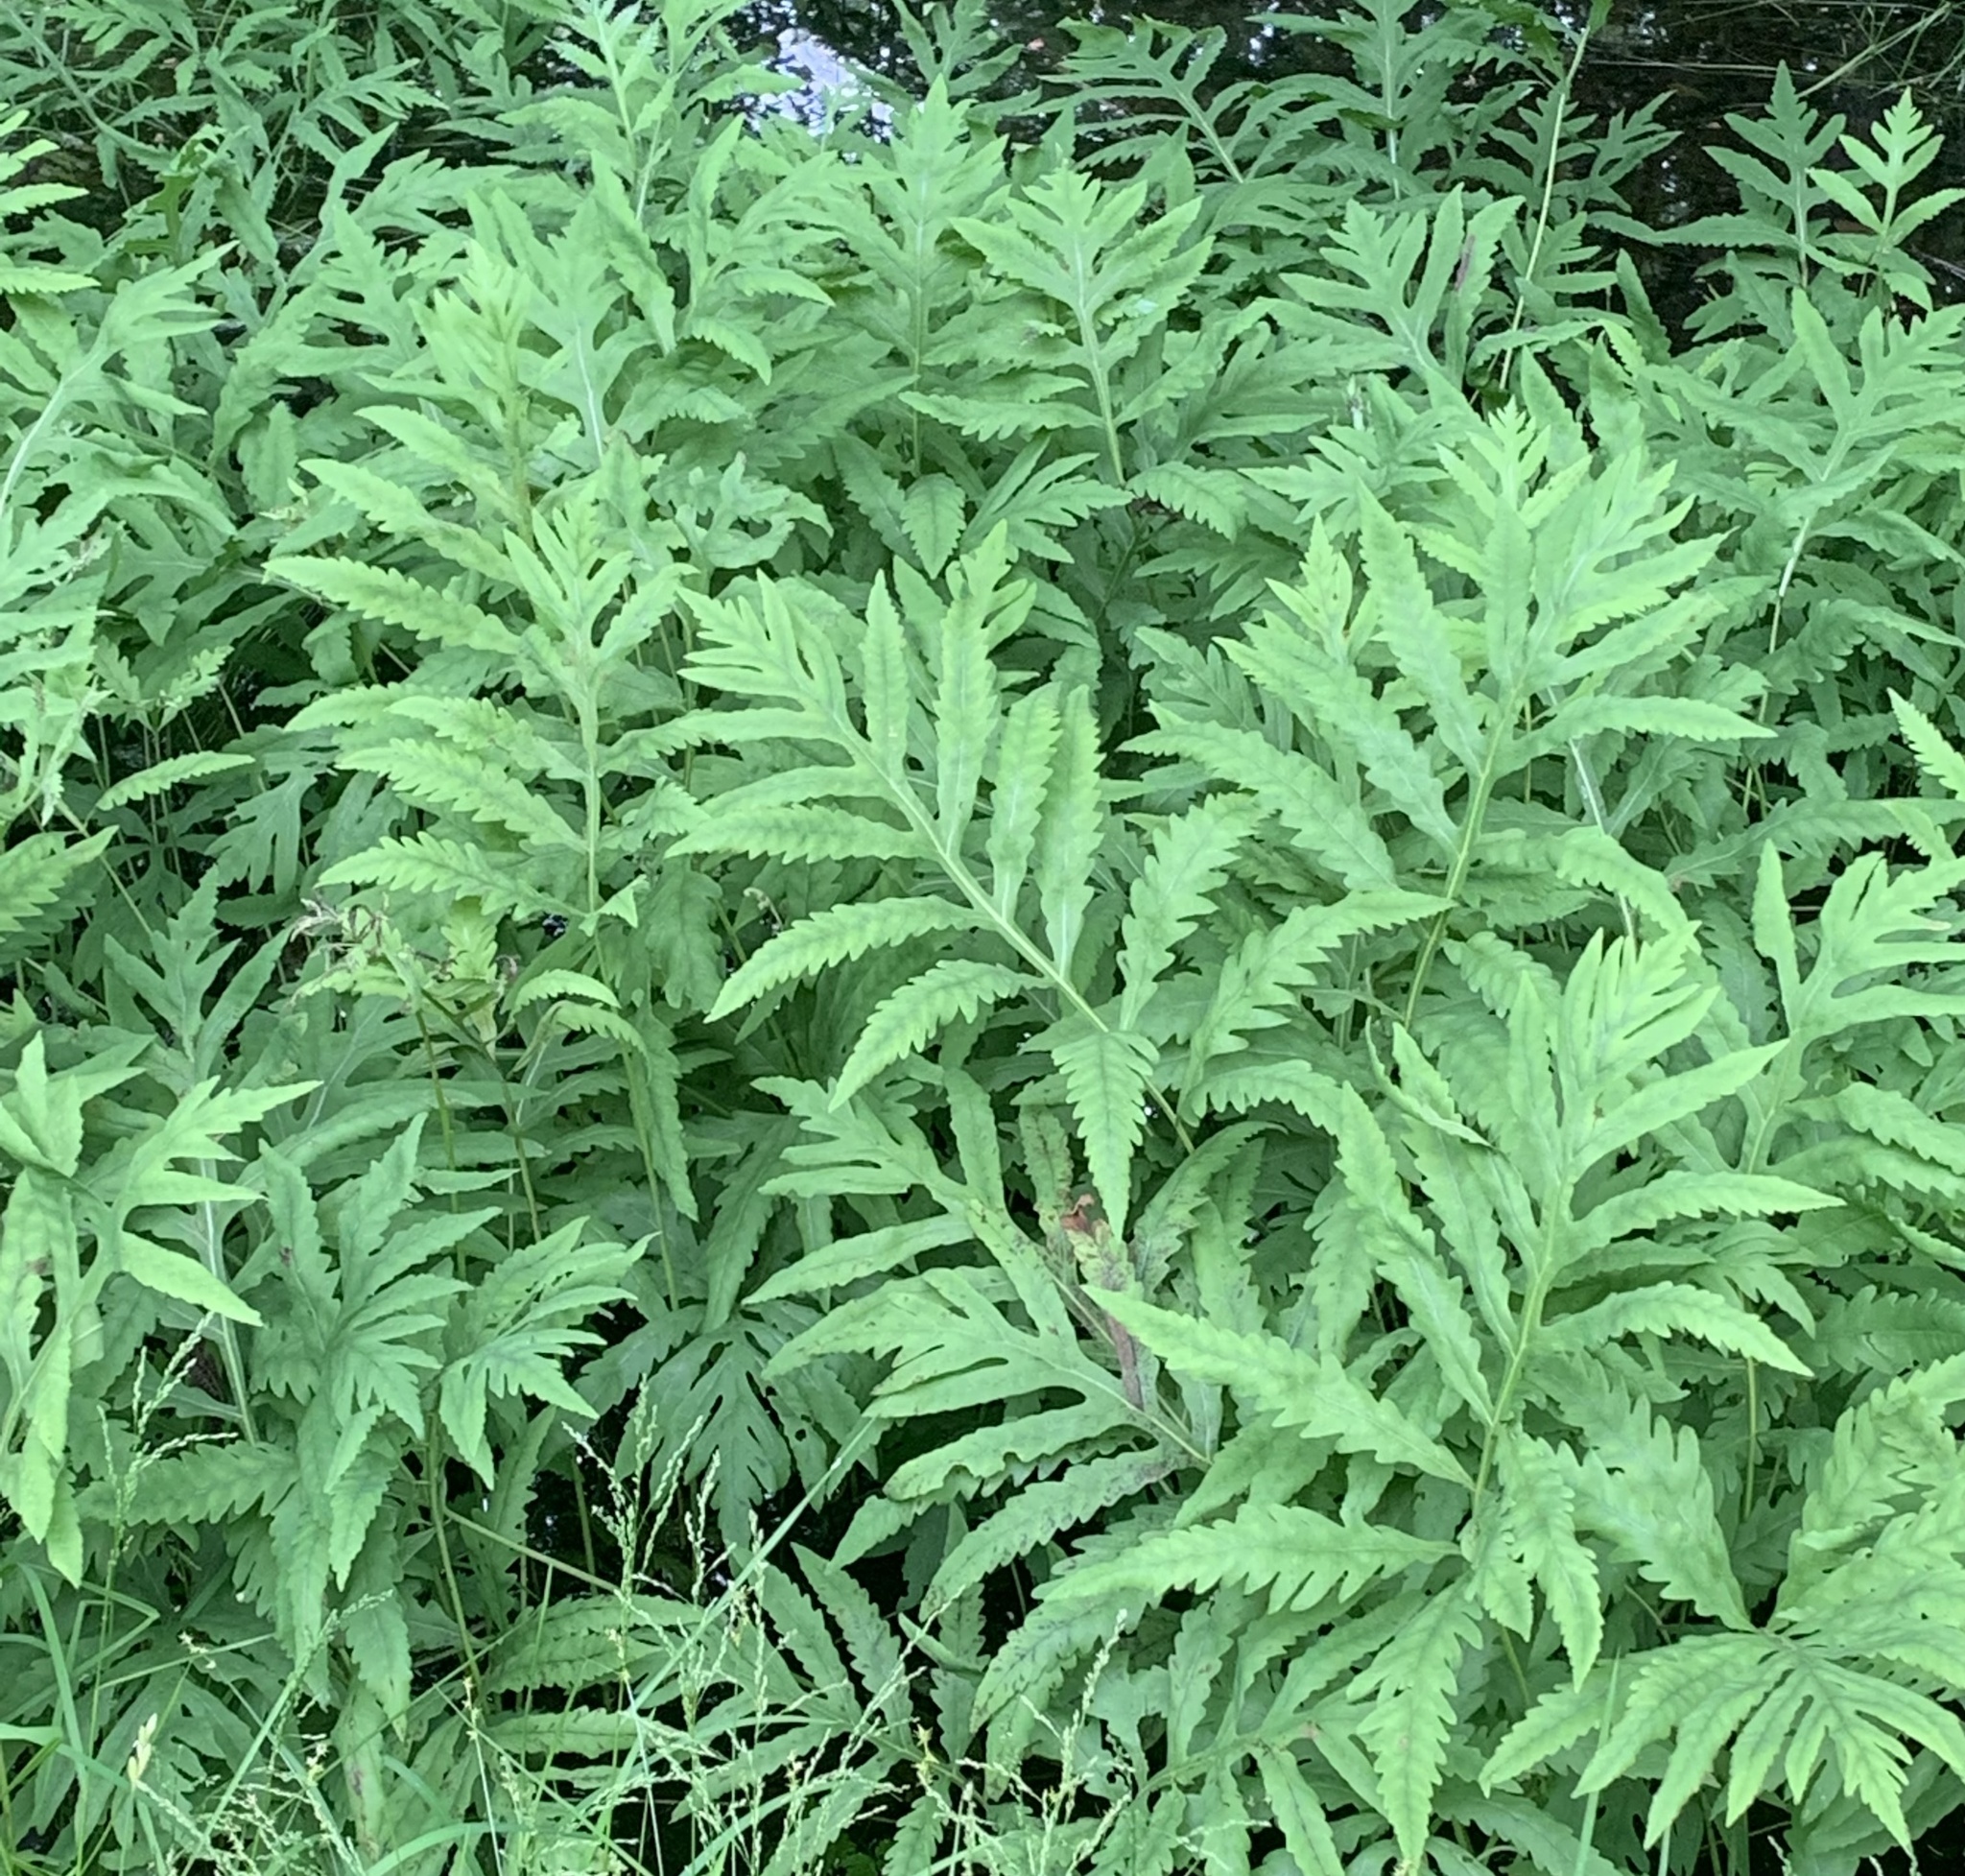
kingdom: Plantae
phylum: Tracheophyta
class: Polypodiopsida
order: Polypodiales
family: Onocleaceae
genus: Onoclea
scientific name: Onoclea sensibilis
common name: Sensitive fern
